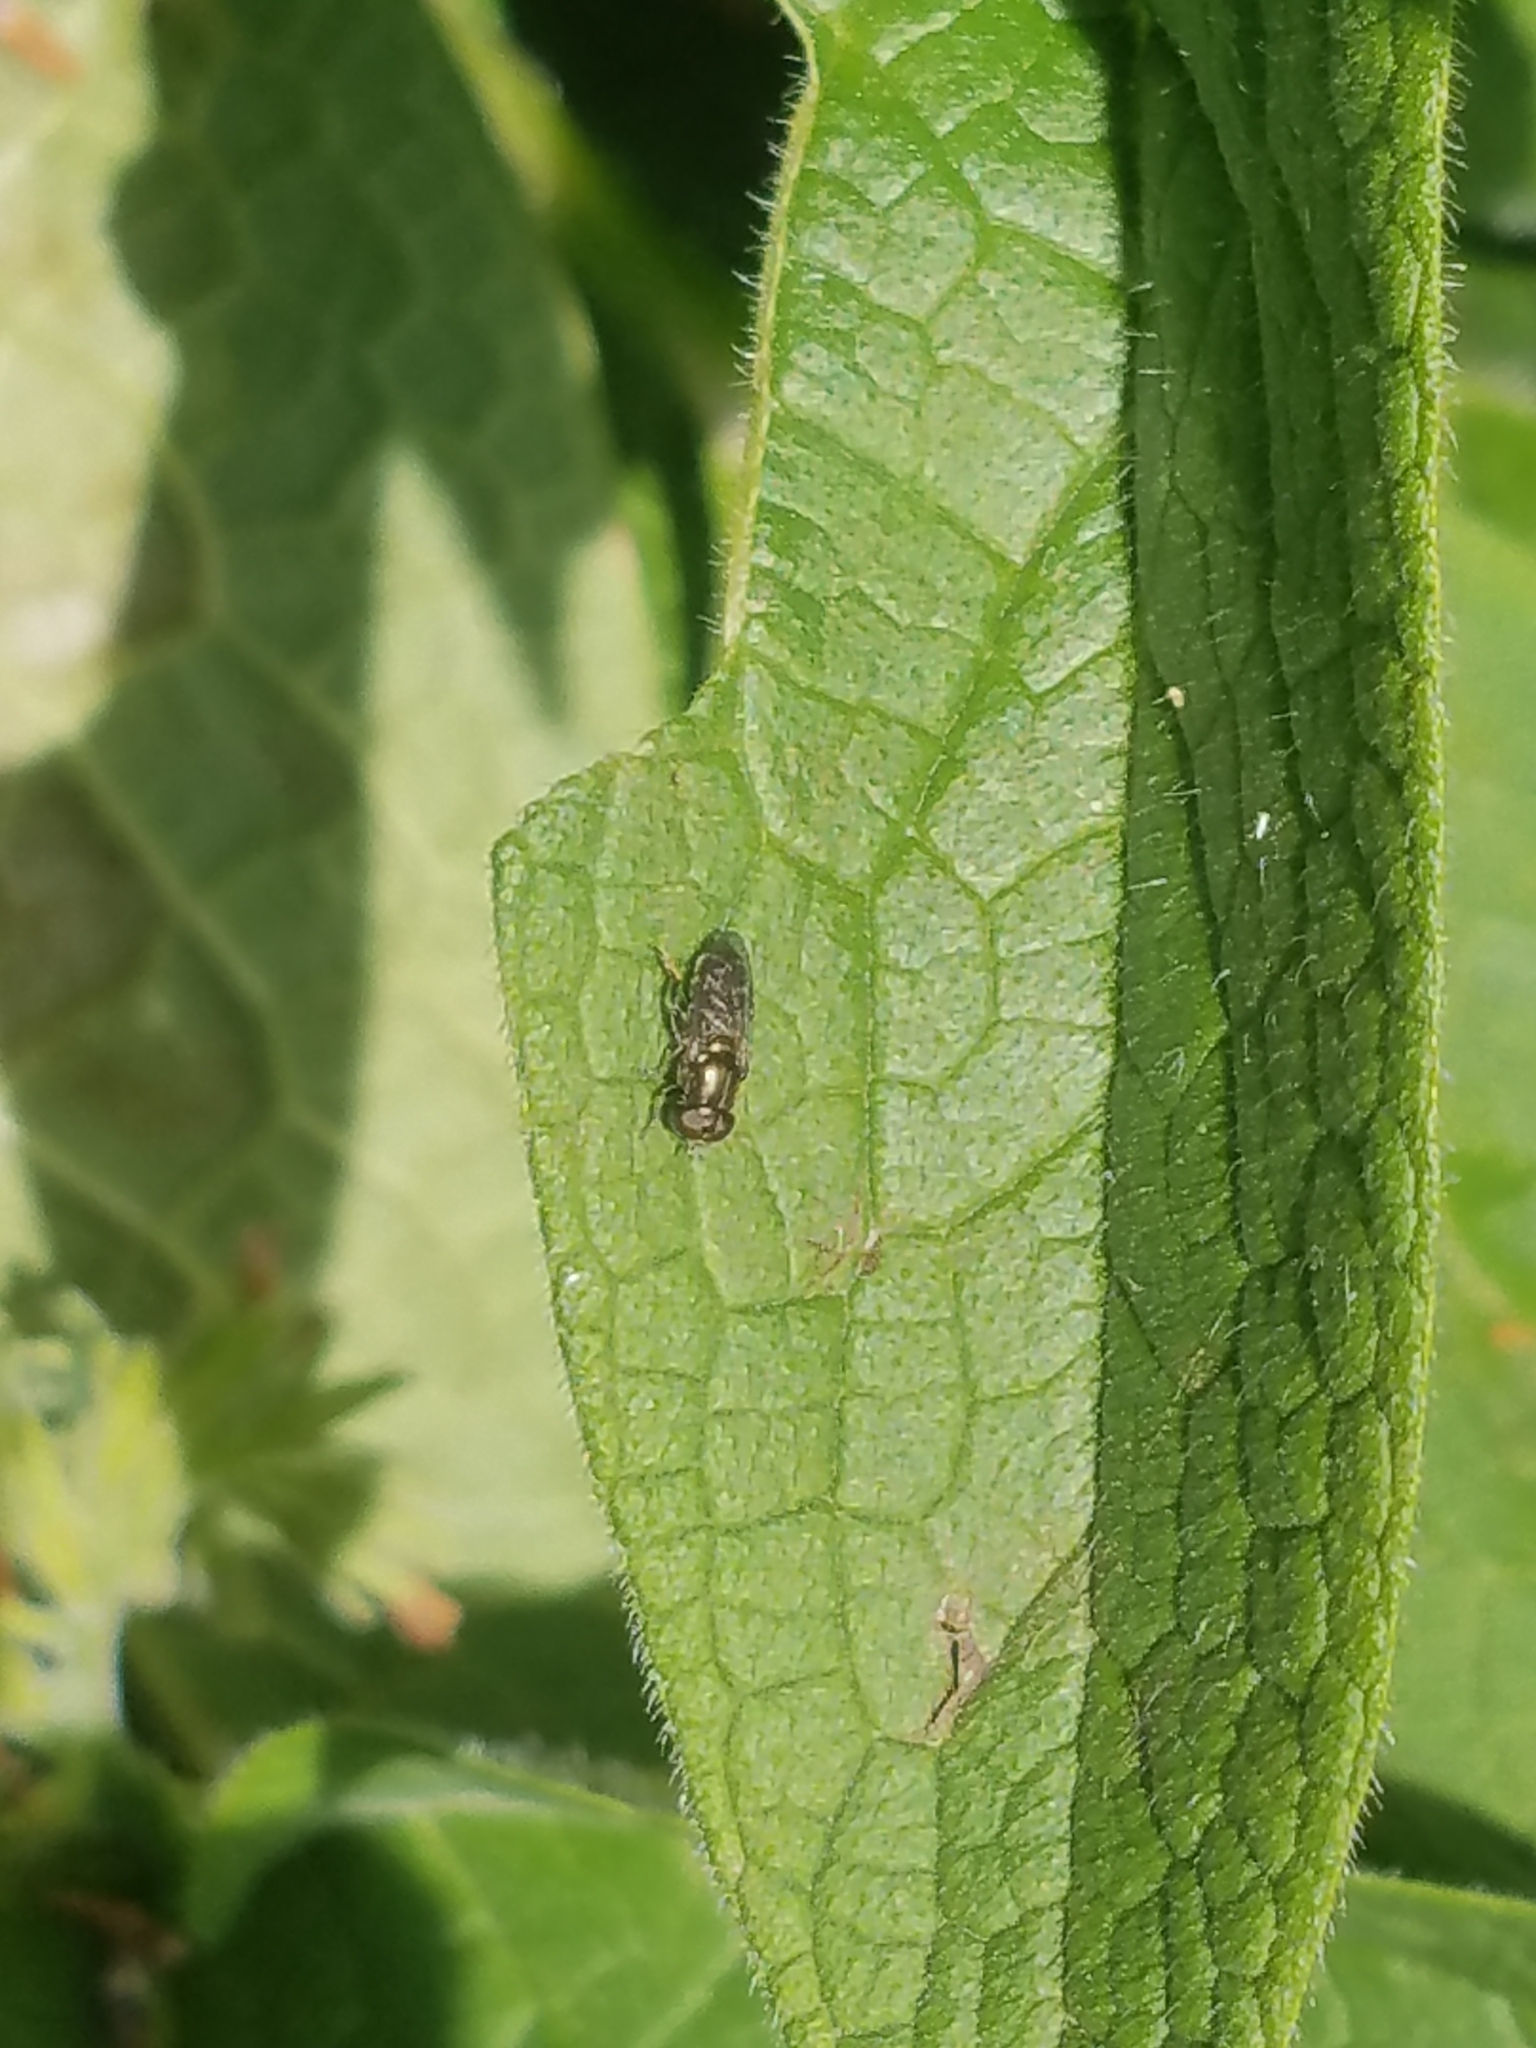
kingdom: Animalia
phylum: Arthropoda
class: Insecta
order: Diptera
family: Syrphidae
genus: Eumerus
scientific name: Eumerus
